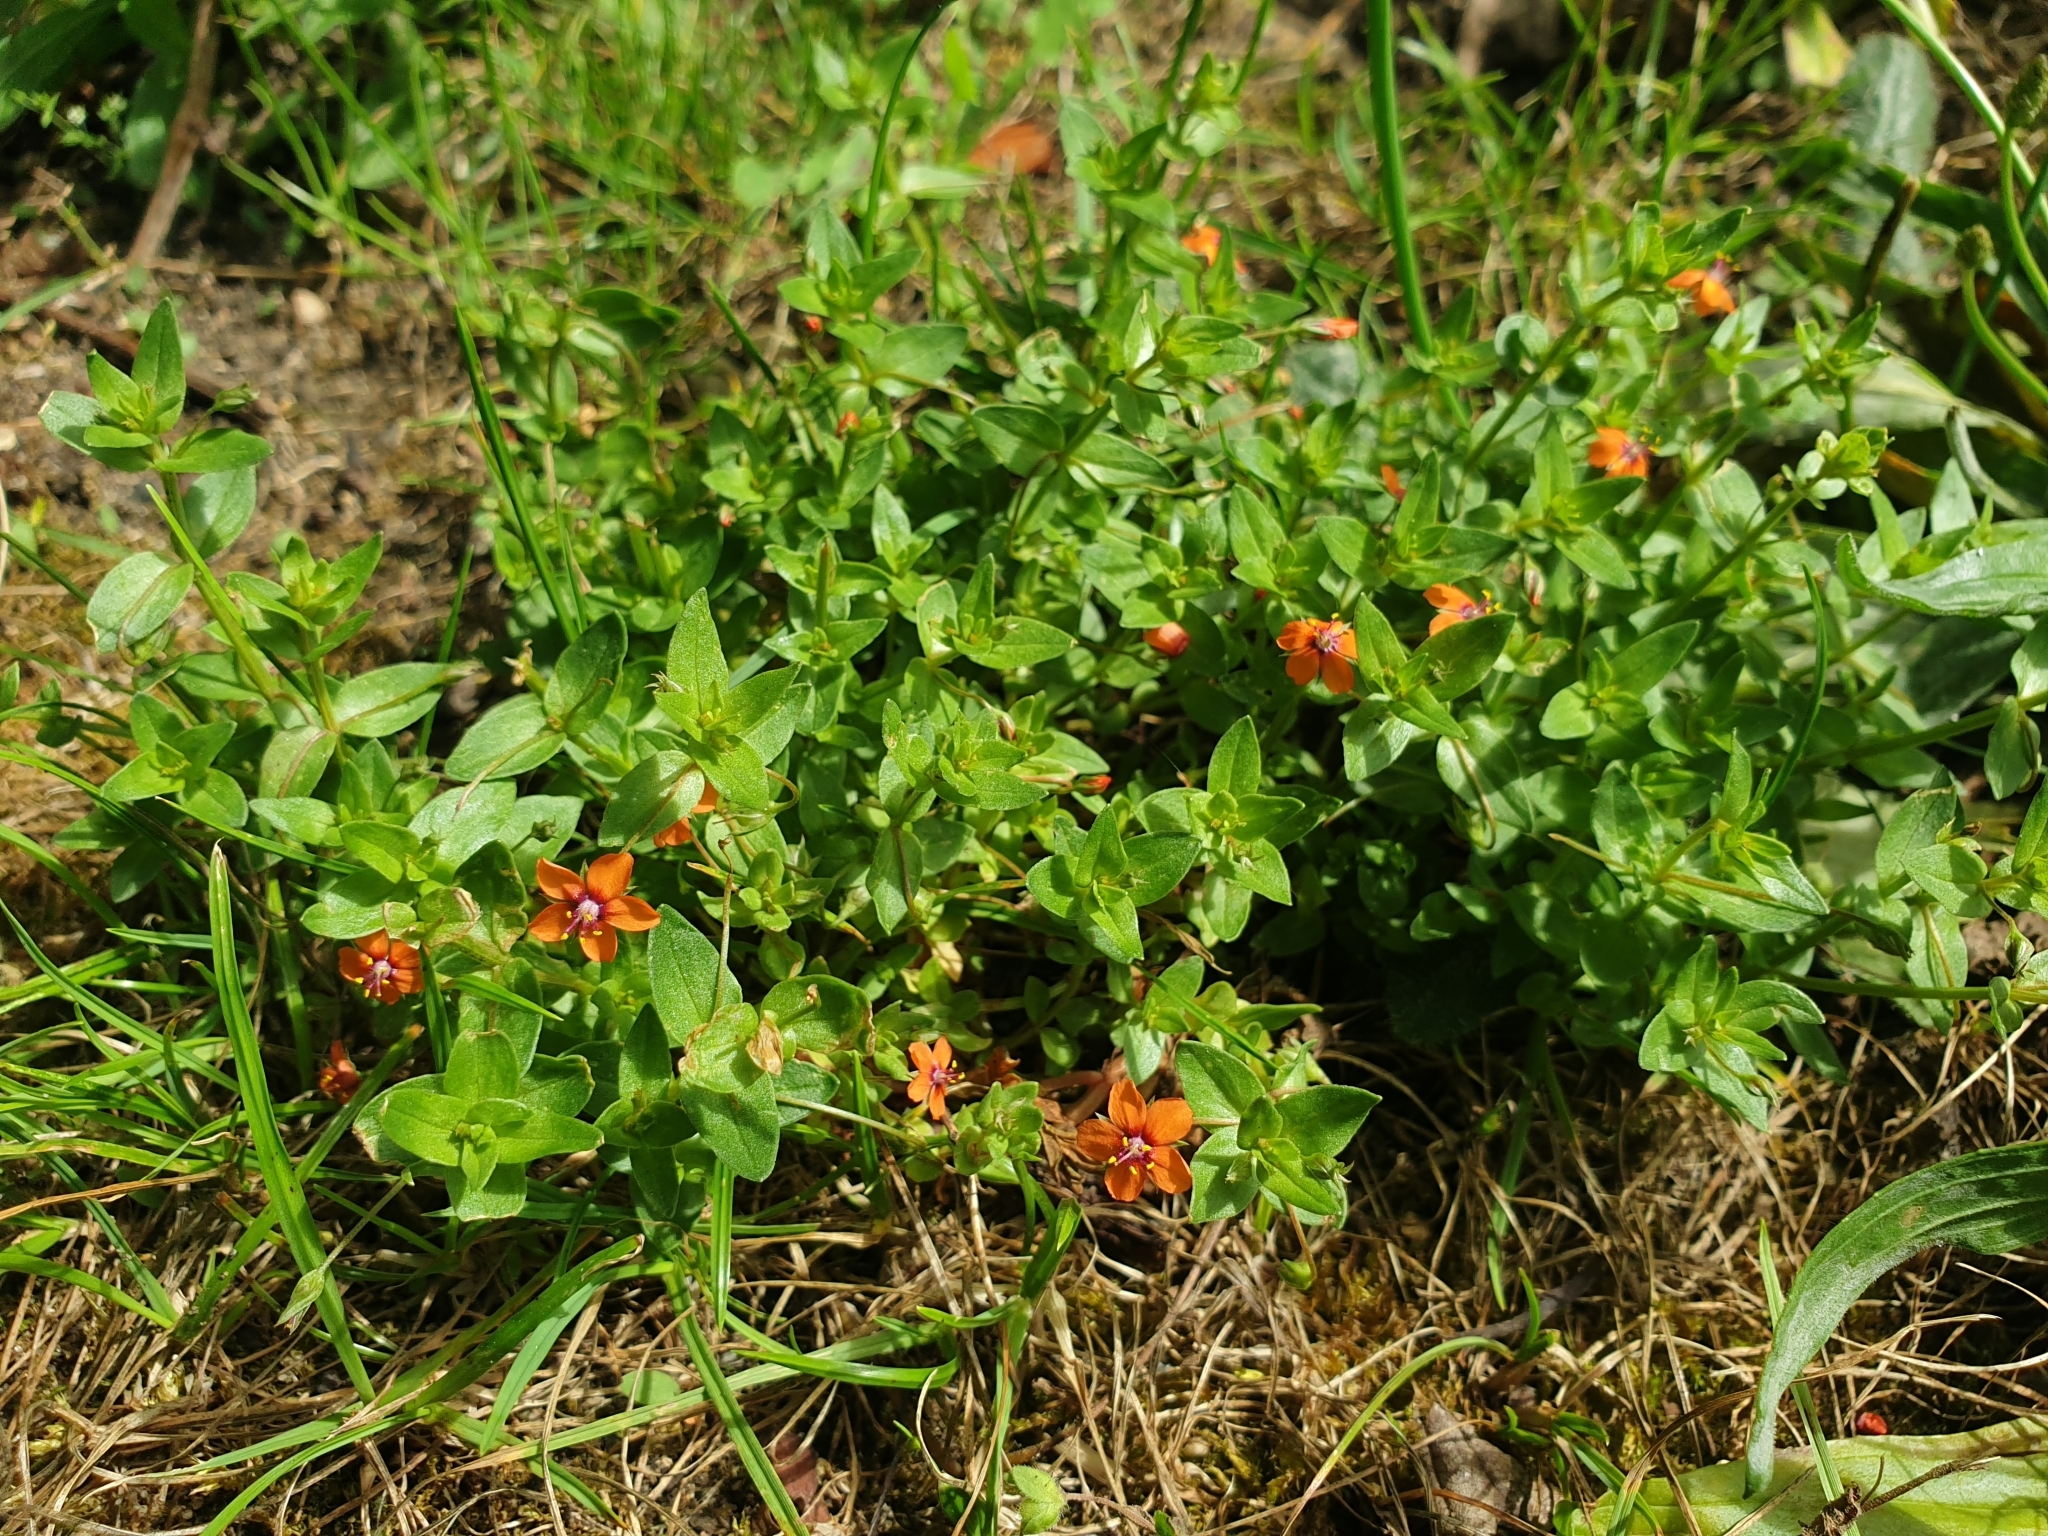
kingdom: Plantae
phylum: Tracheophyta
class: Magnoliopsida
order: Ericales
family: Primulaceae
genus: Lysimachia
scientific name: Lysimachia arvensis
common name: Scarlet pimpernel
